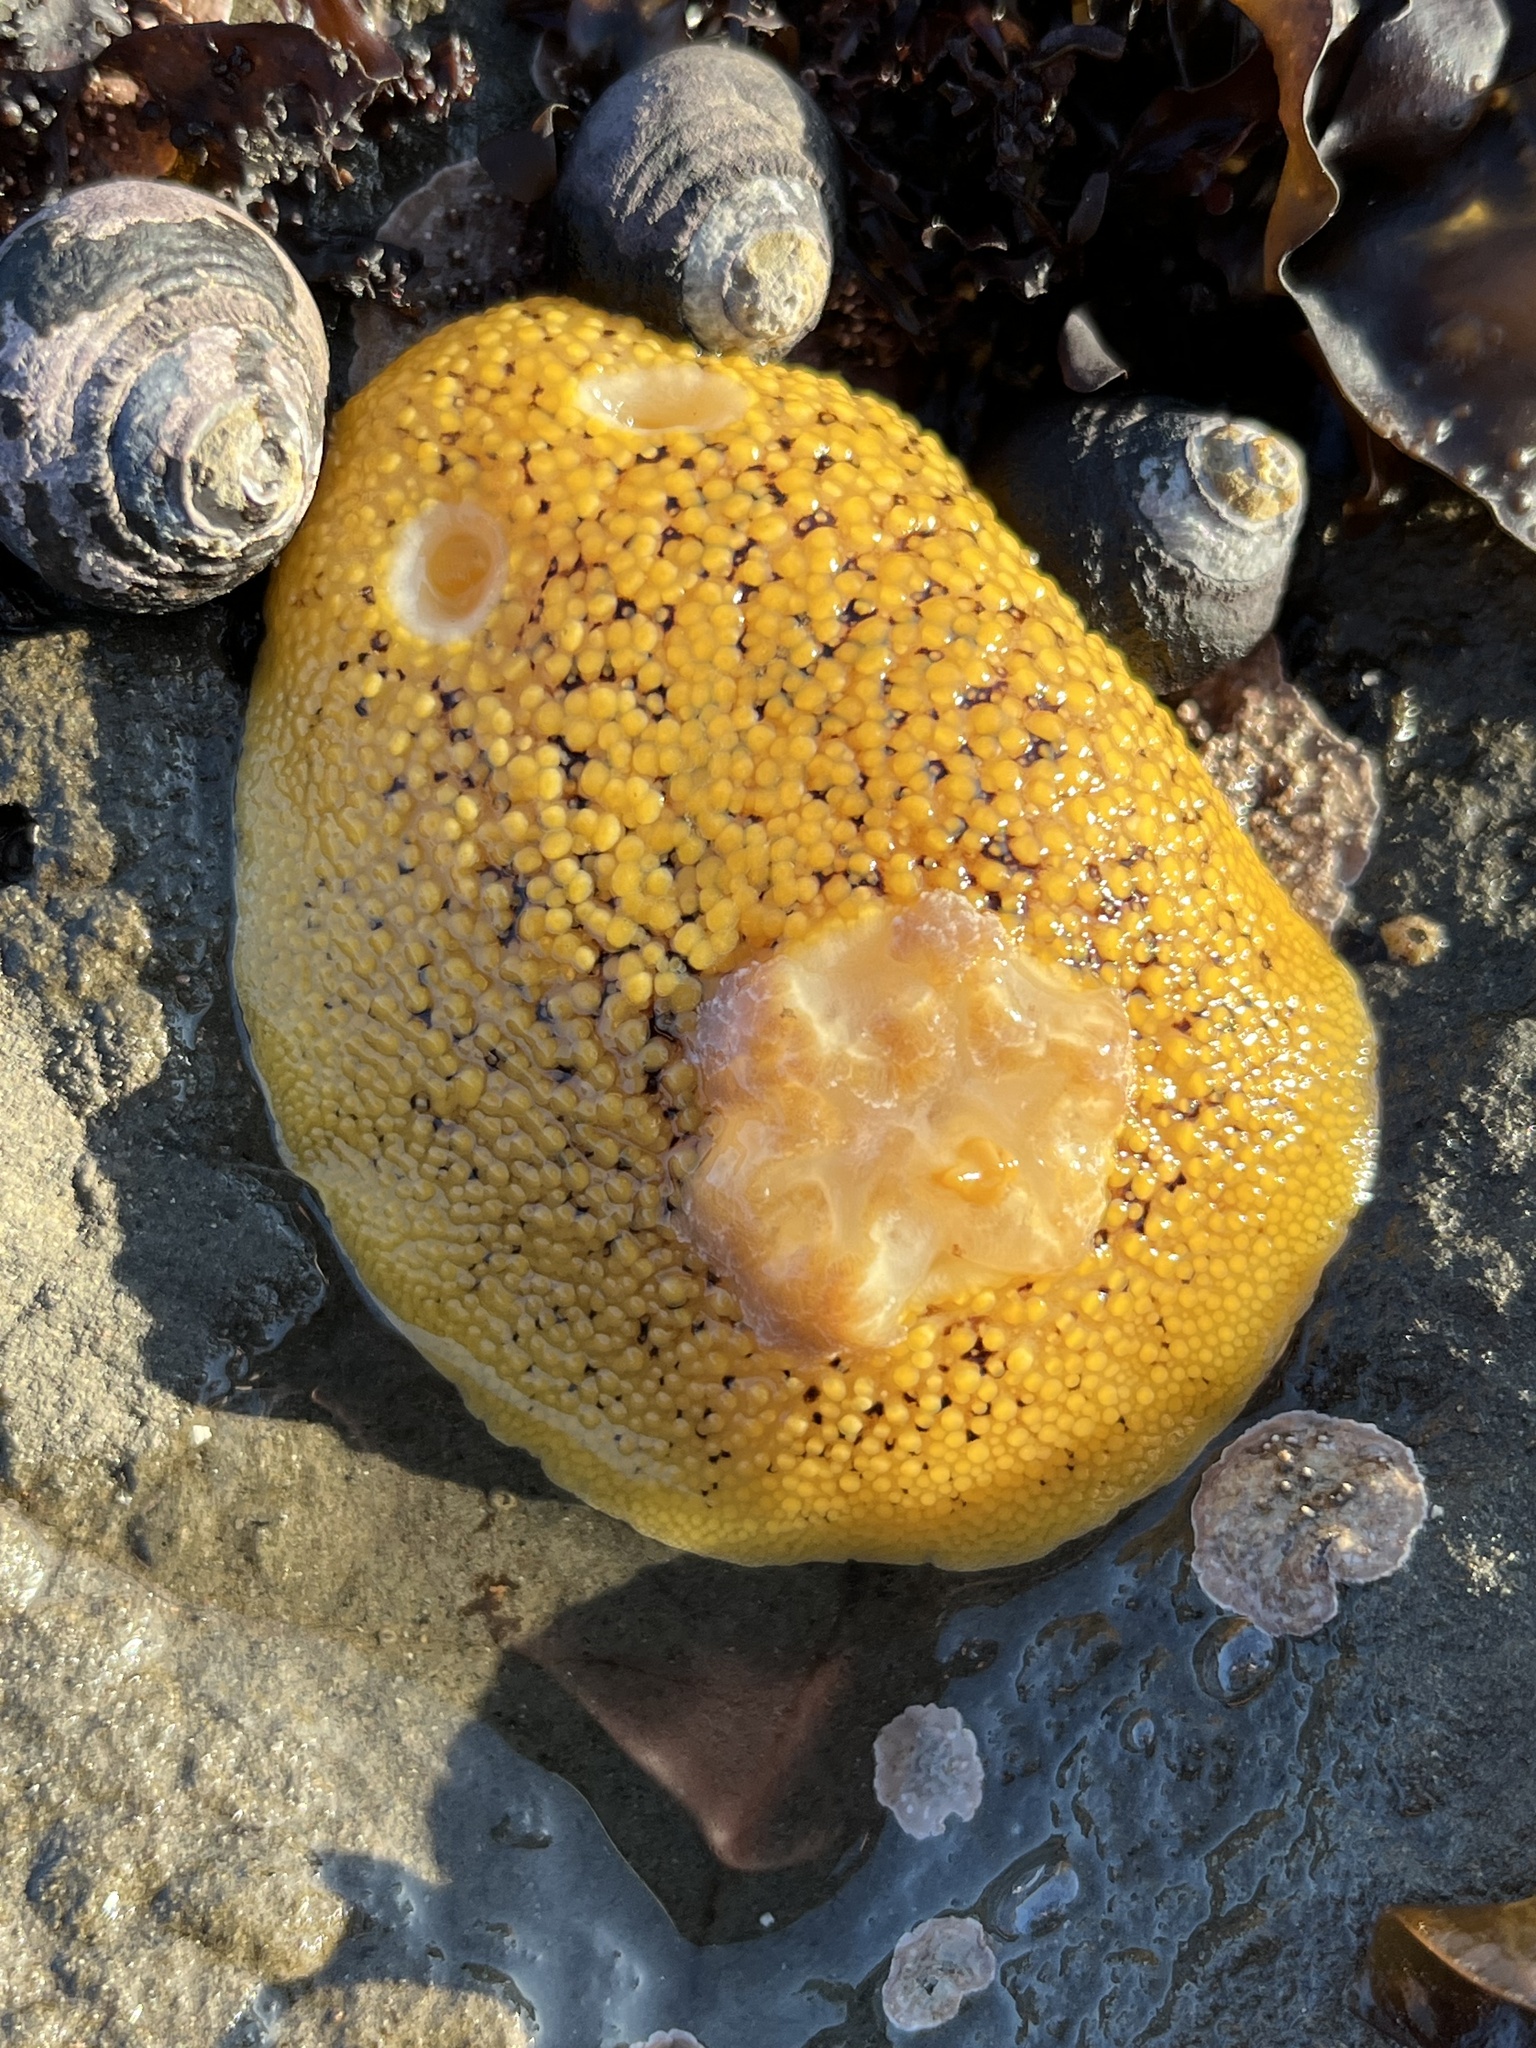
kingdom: Animalia
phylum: Mollusca
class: Gastropoda
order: Nudibranchia
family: Discodorididae
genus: Peltodoris
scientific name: Peltodoris nobilis
